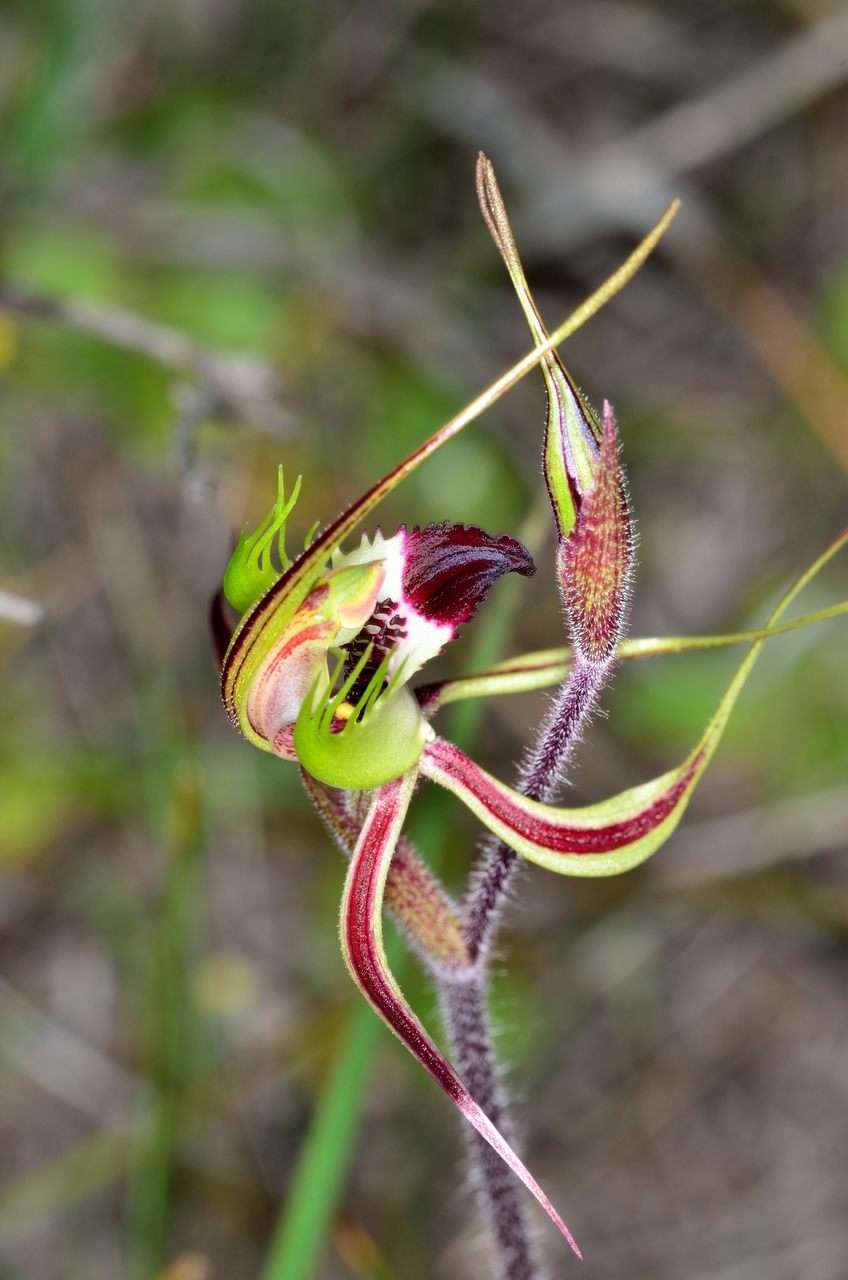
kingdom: Plantae
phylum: Tracheophyta
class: Liliopsida
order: Asparagales
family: Orchidaceae
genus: Caladenia
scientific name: Caladenia tentaculata
